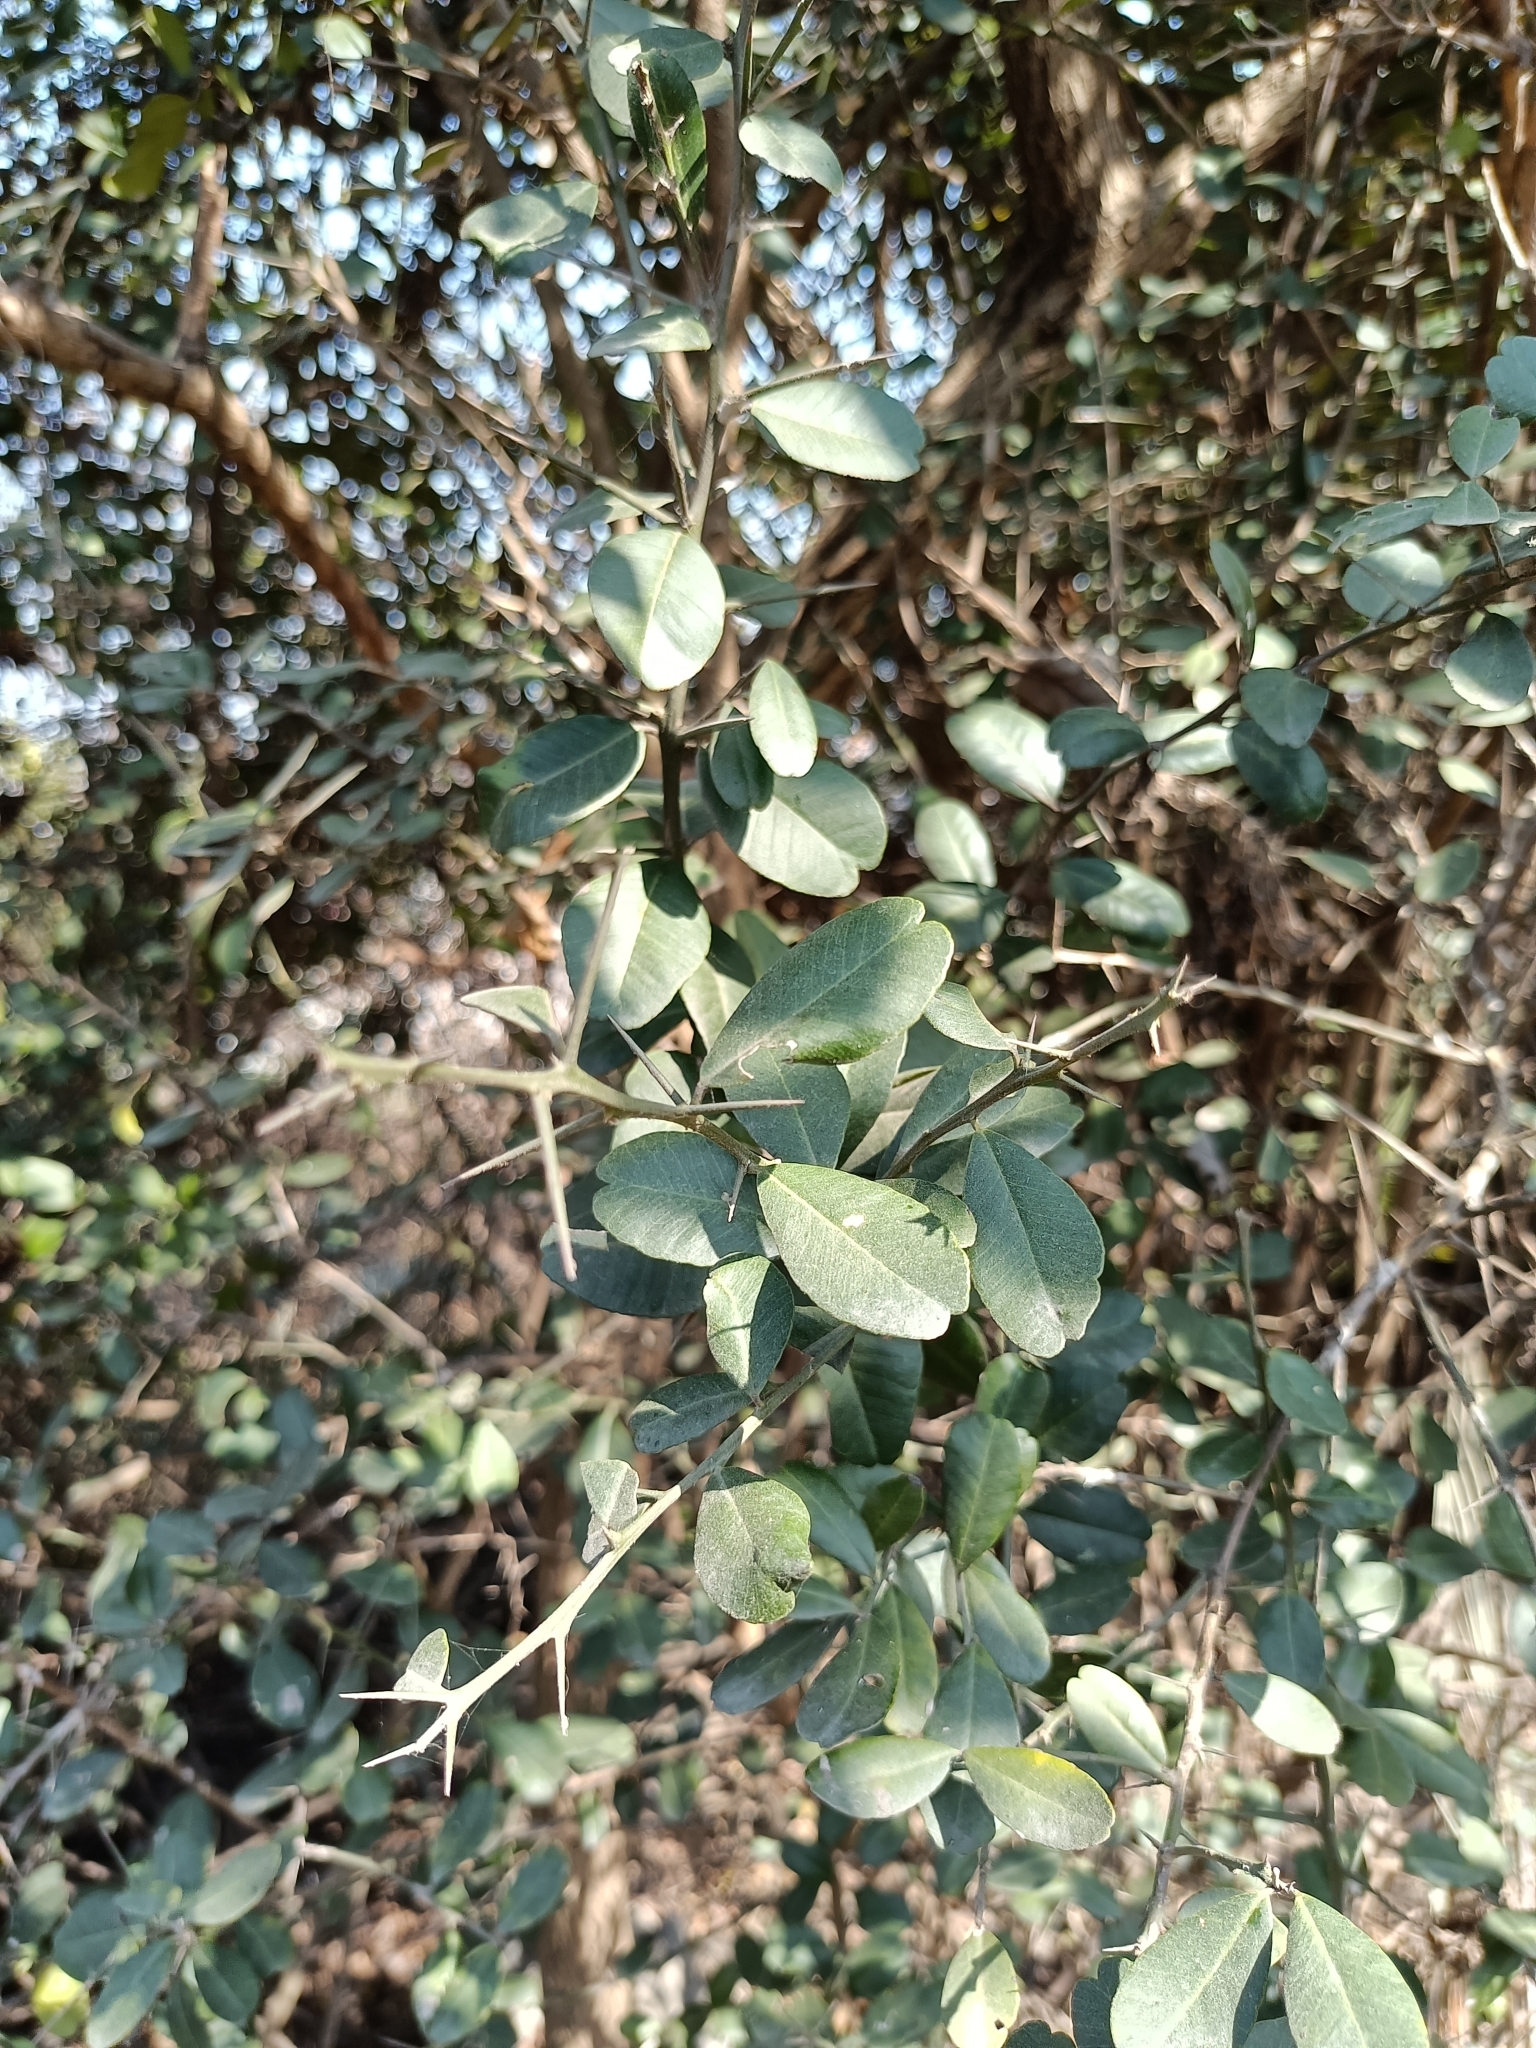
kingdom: Plantae
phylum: Tracheophyta
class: Magnoliopsida
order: Sapindales
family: Rutaceae
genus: Atalantia
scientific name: Atalantia buxifolia
